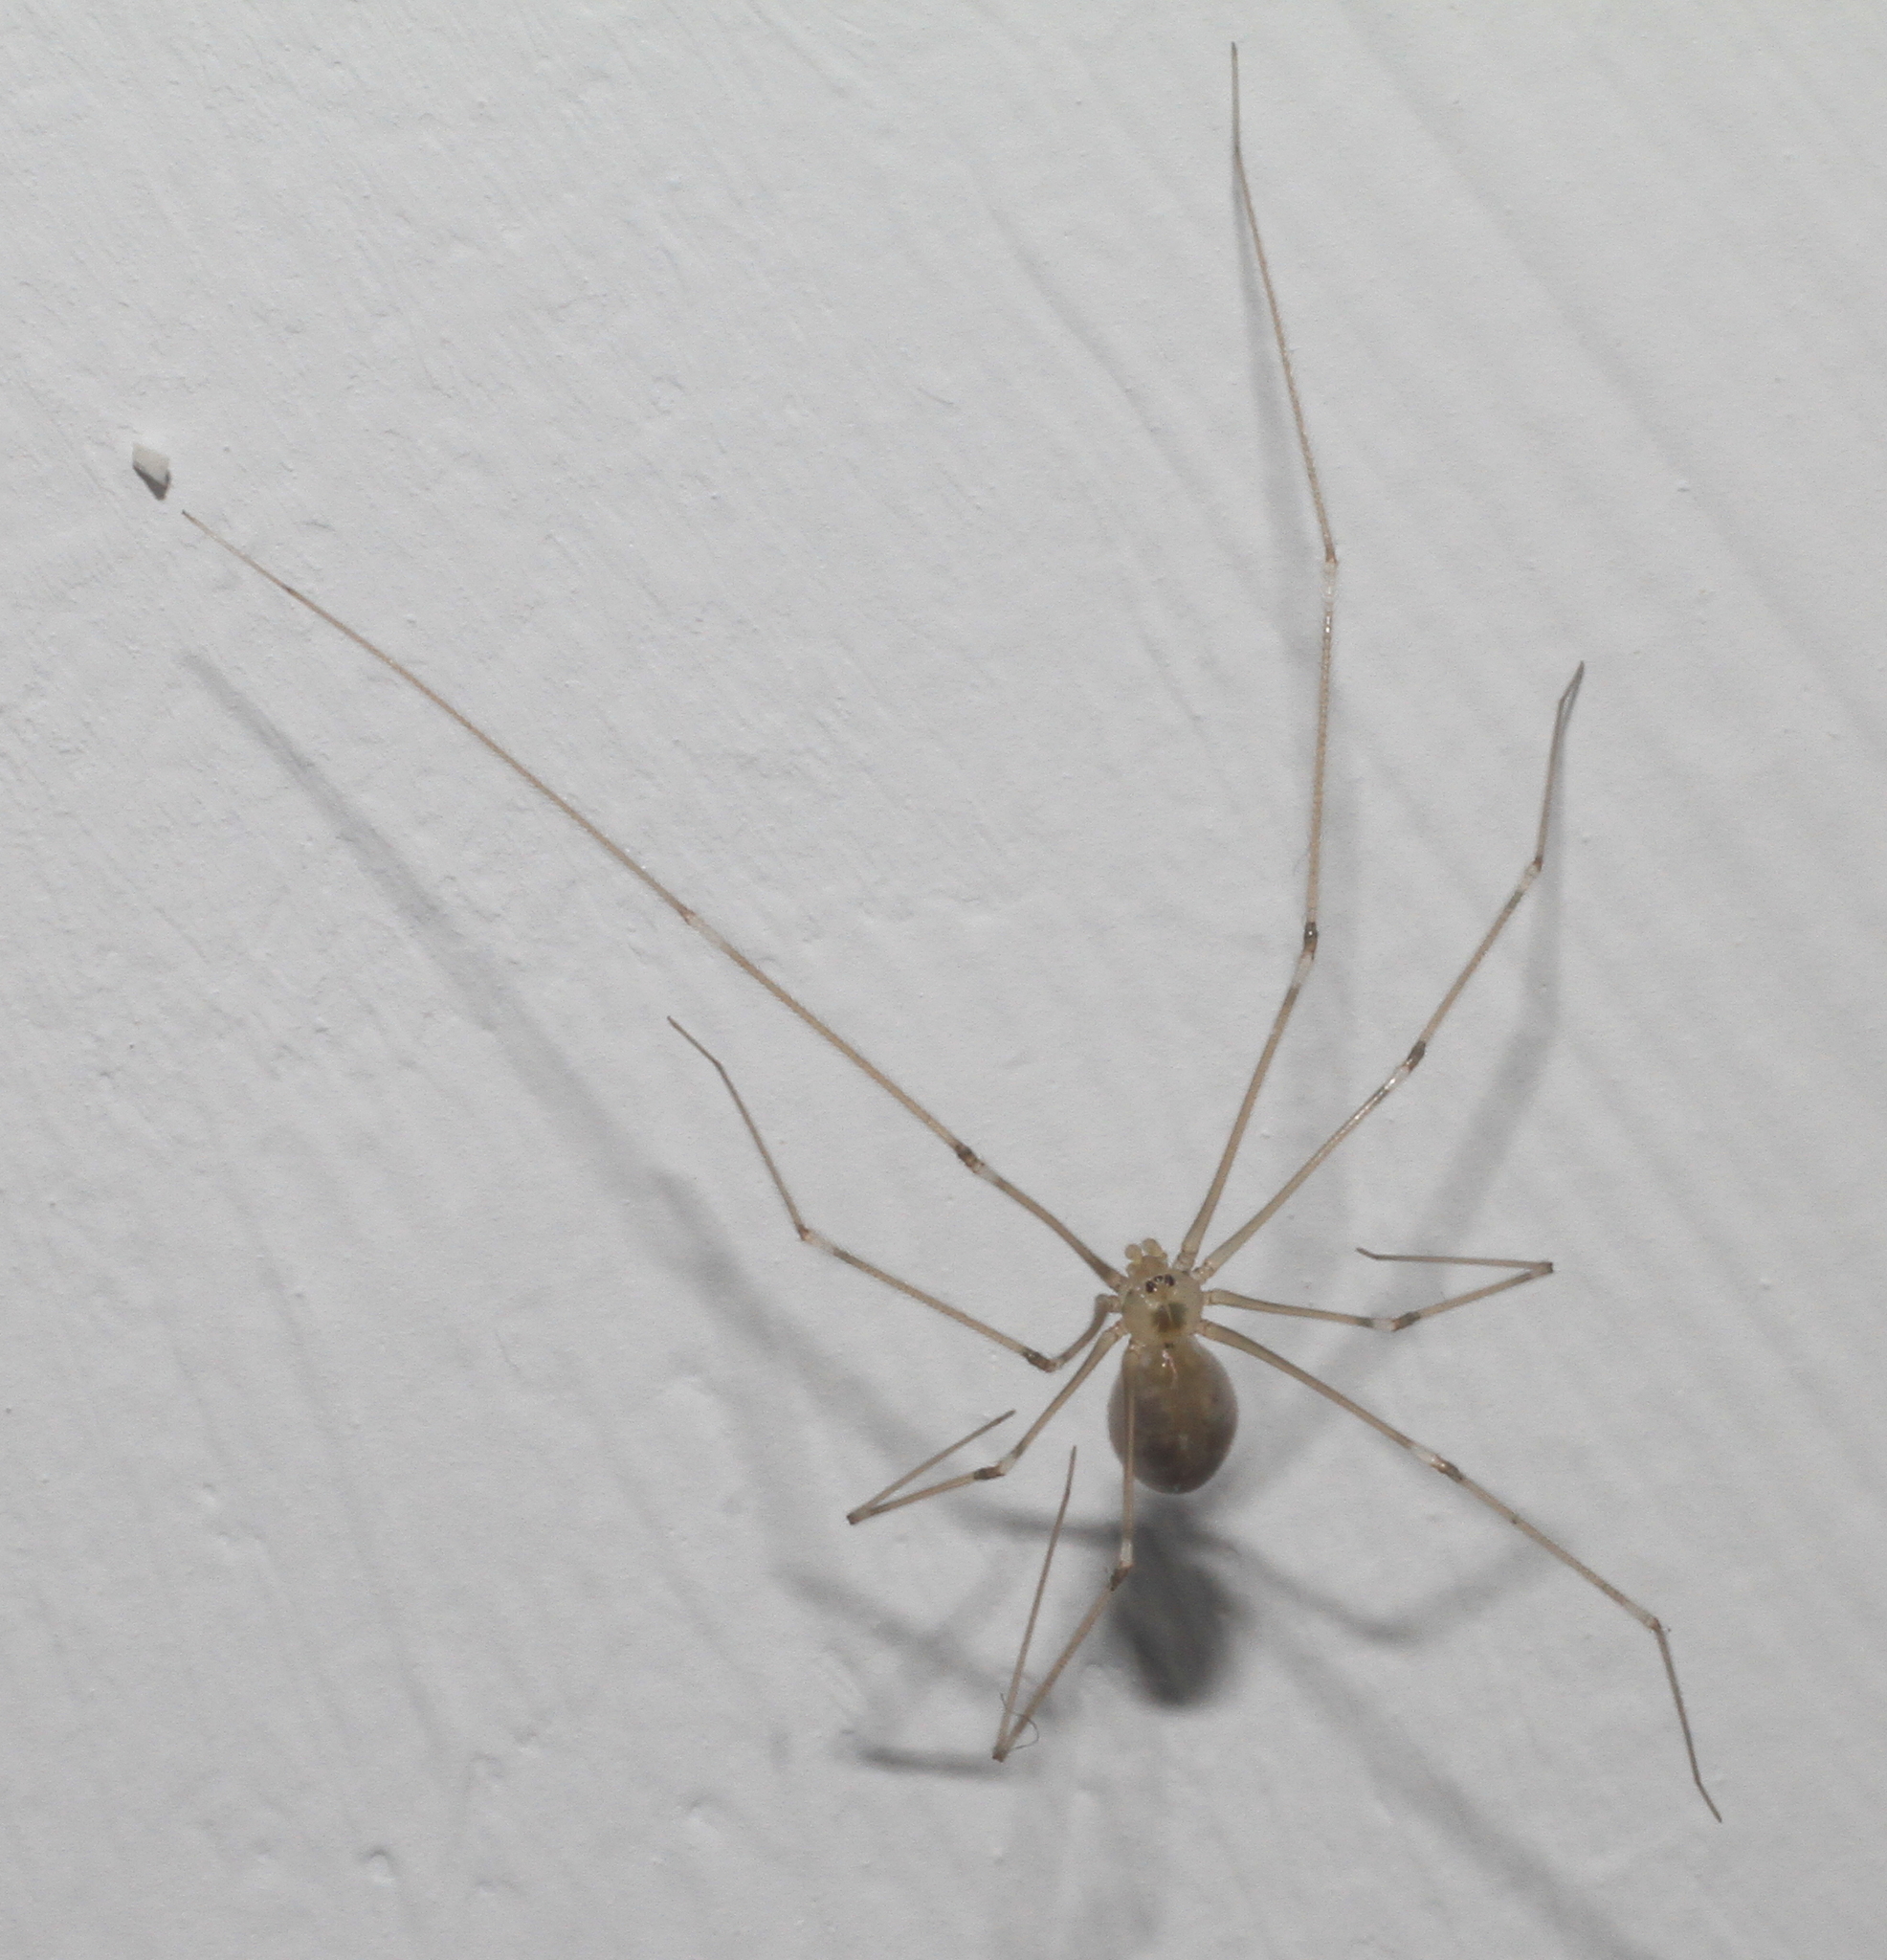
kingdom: Animalia
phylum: Arthropoda
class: Arachnida
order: Araneae
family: Pholcidae
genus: Pholcus
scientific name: Pholcus phalangioides
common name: Longbodied cellar spider
